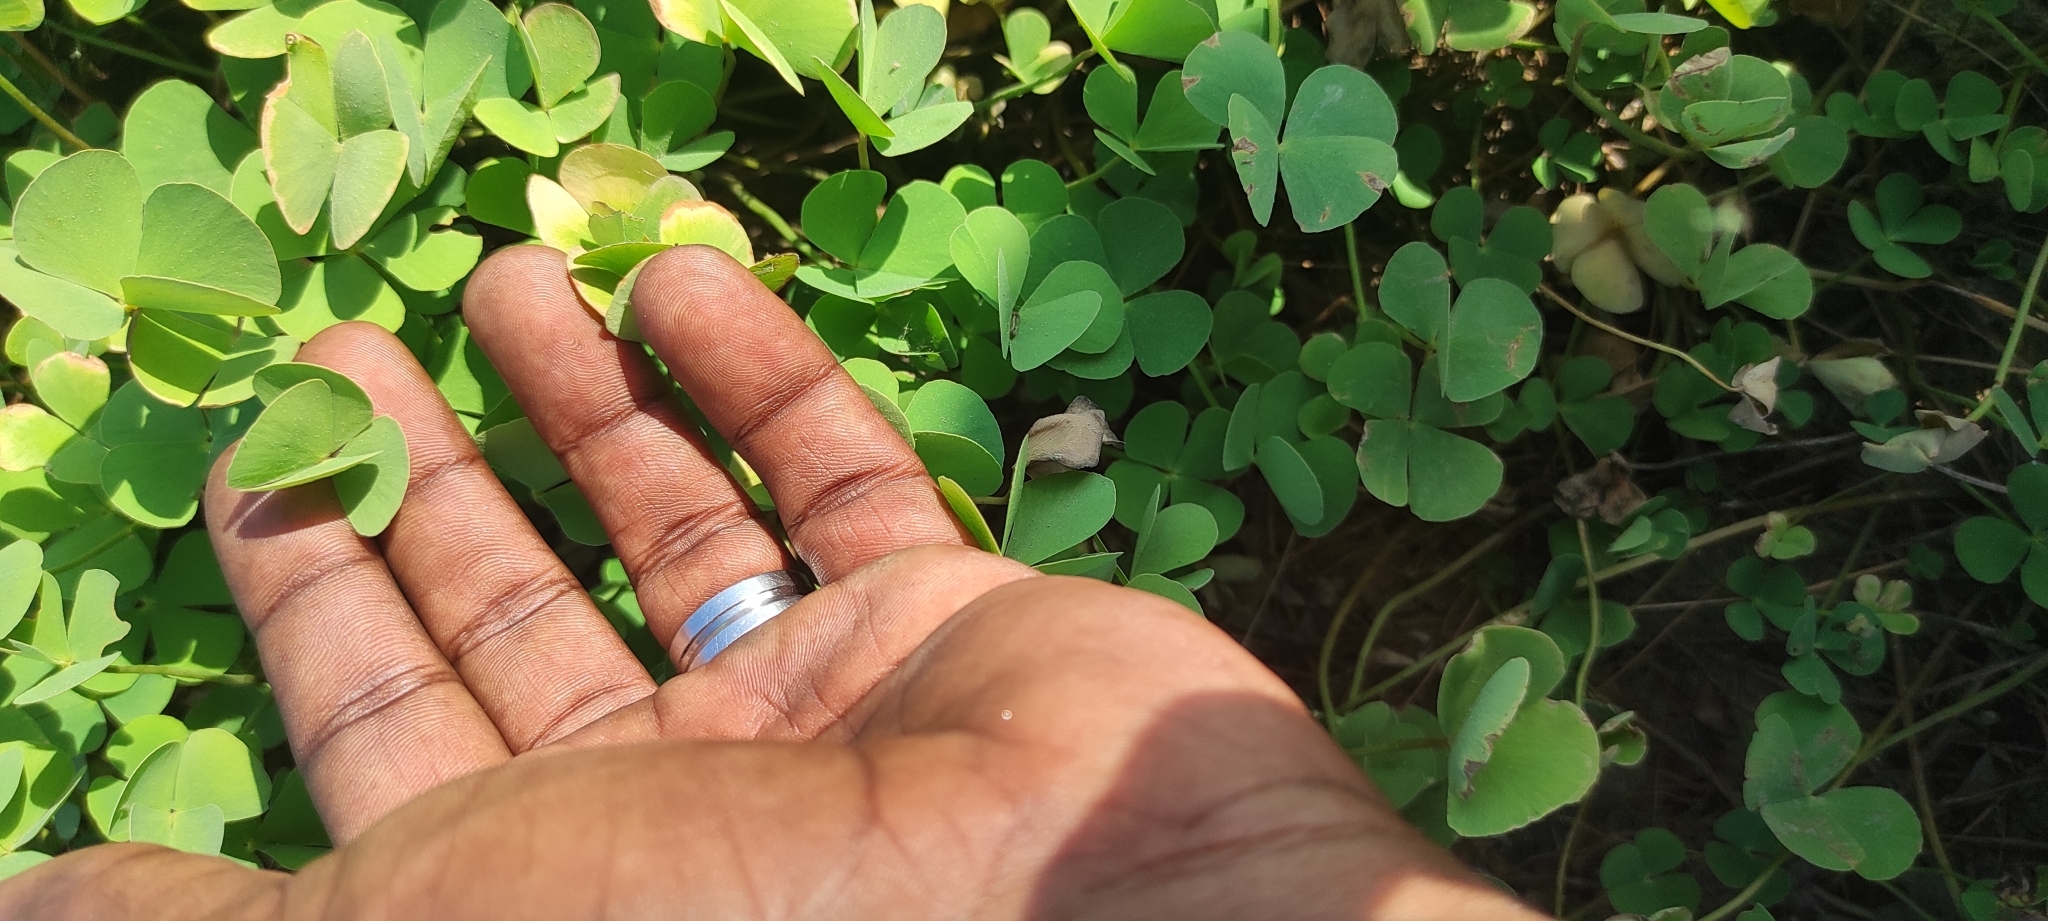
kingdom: Plantae
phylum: Tracheophyta
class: Polypodiopsida
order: Salviniales
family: Marsileaceae
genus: Marsilea
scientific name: Marsilea minuta
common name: Dwarf waterclover
